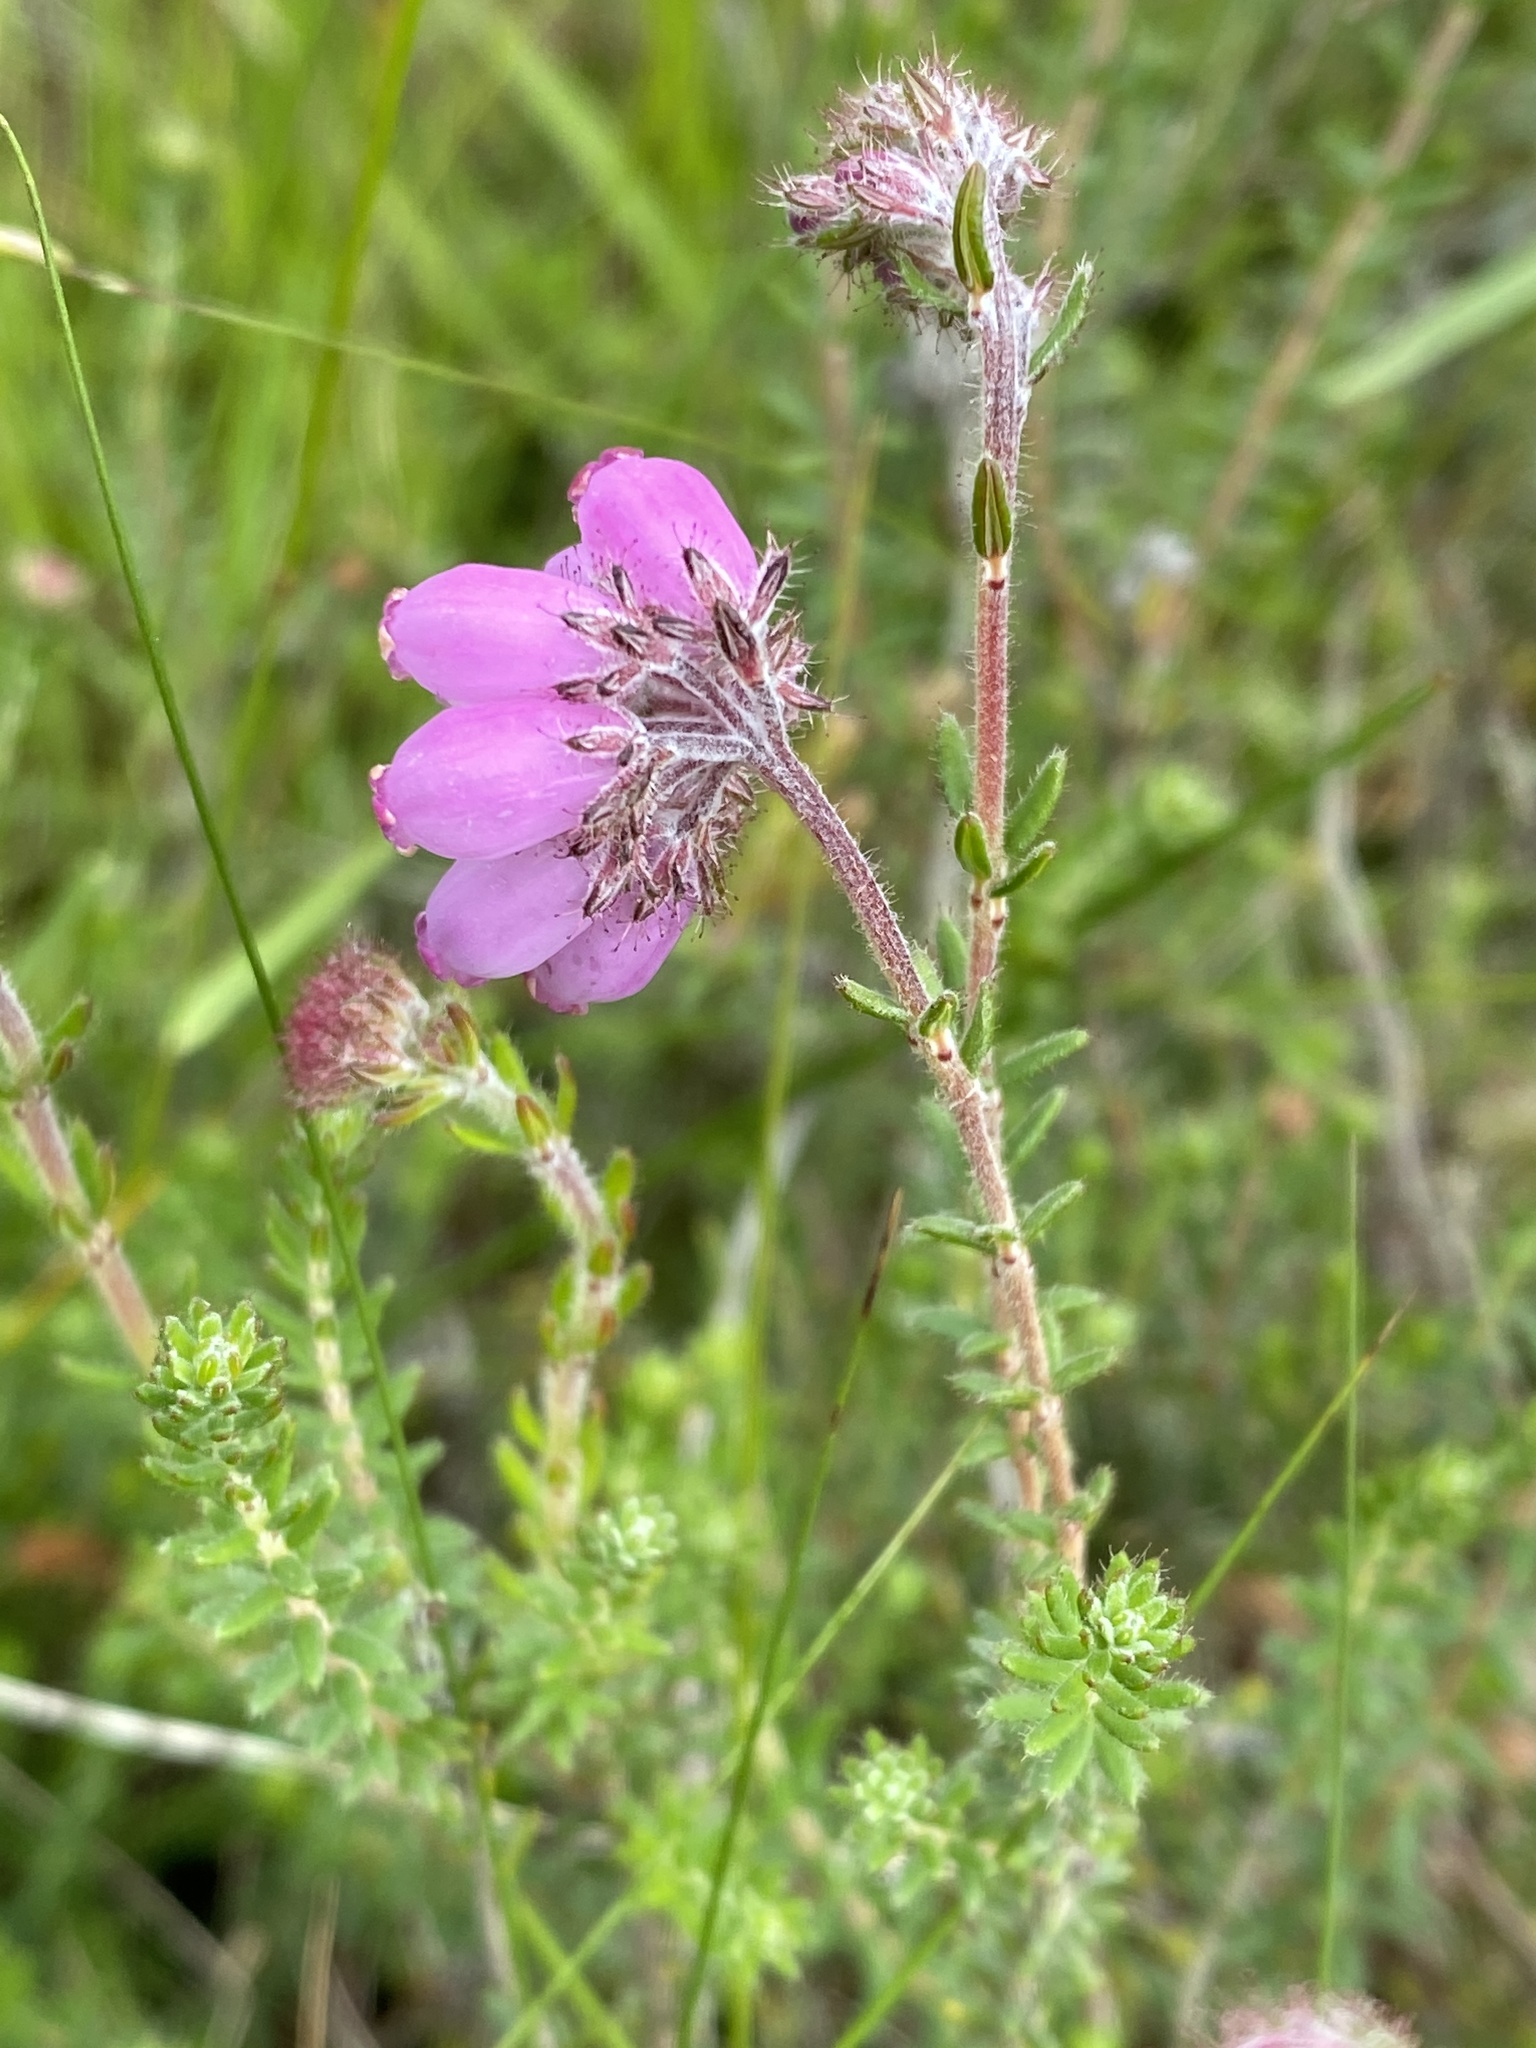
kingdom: Plantae
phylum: Tracheophyta
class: Magnoliopsida
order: Ericales
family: Ericaceae
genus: Erica
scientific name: Erica tetralix
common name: Cross-leaved heath
